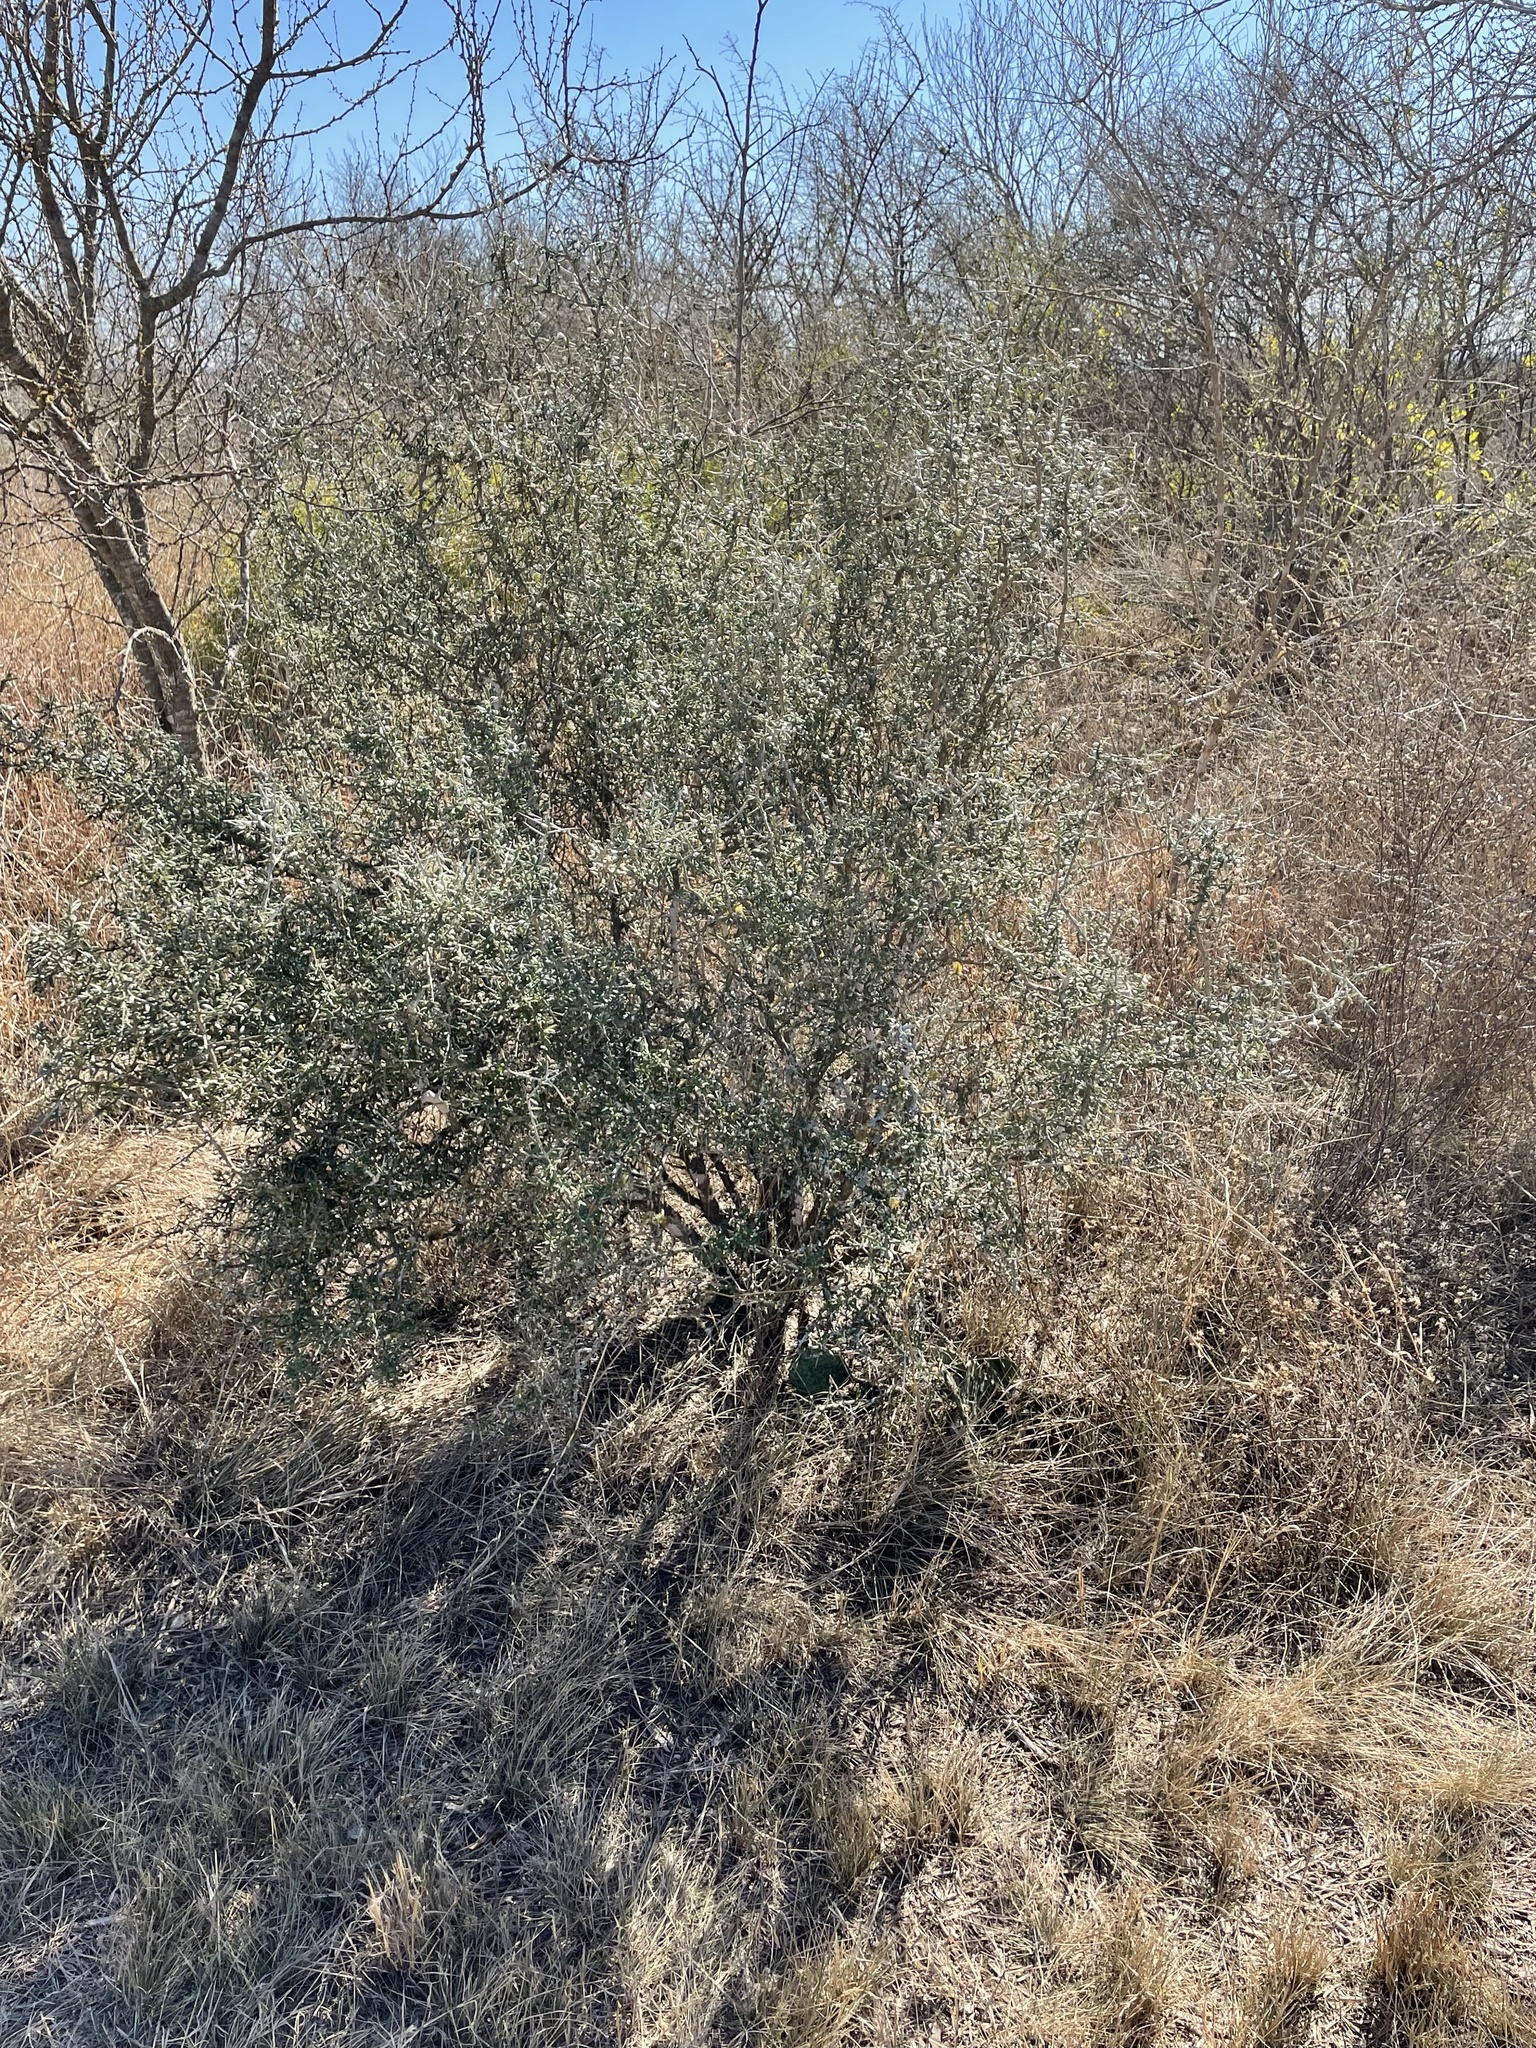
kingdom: Plantae
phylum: Tracheophyta
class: Magnoliopsida
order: Sapindales
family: Simaroubaceae
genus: Castela
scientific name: Castela erecta
